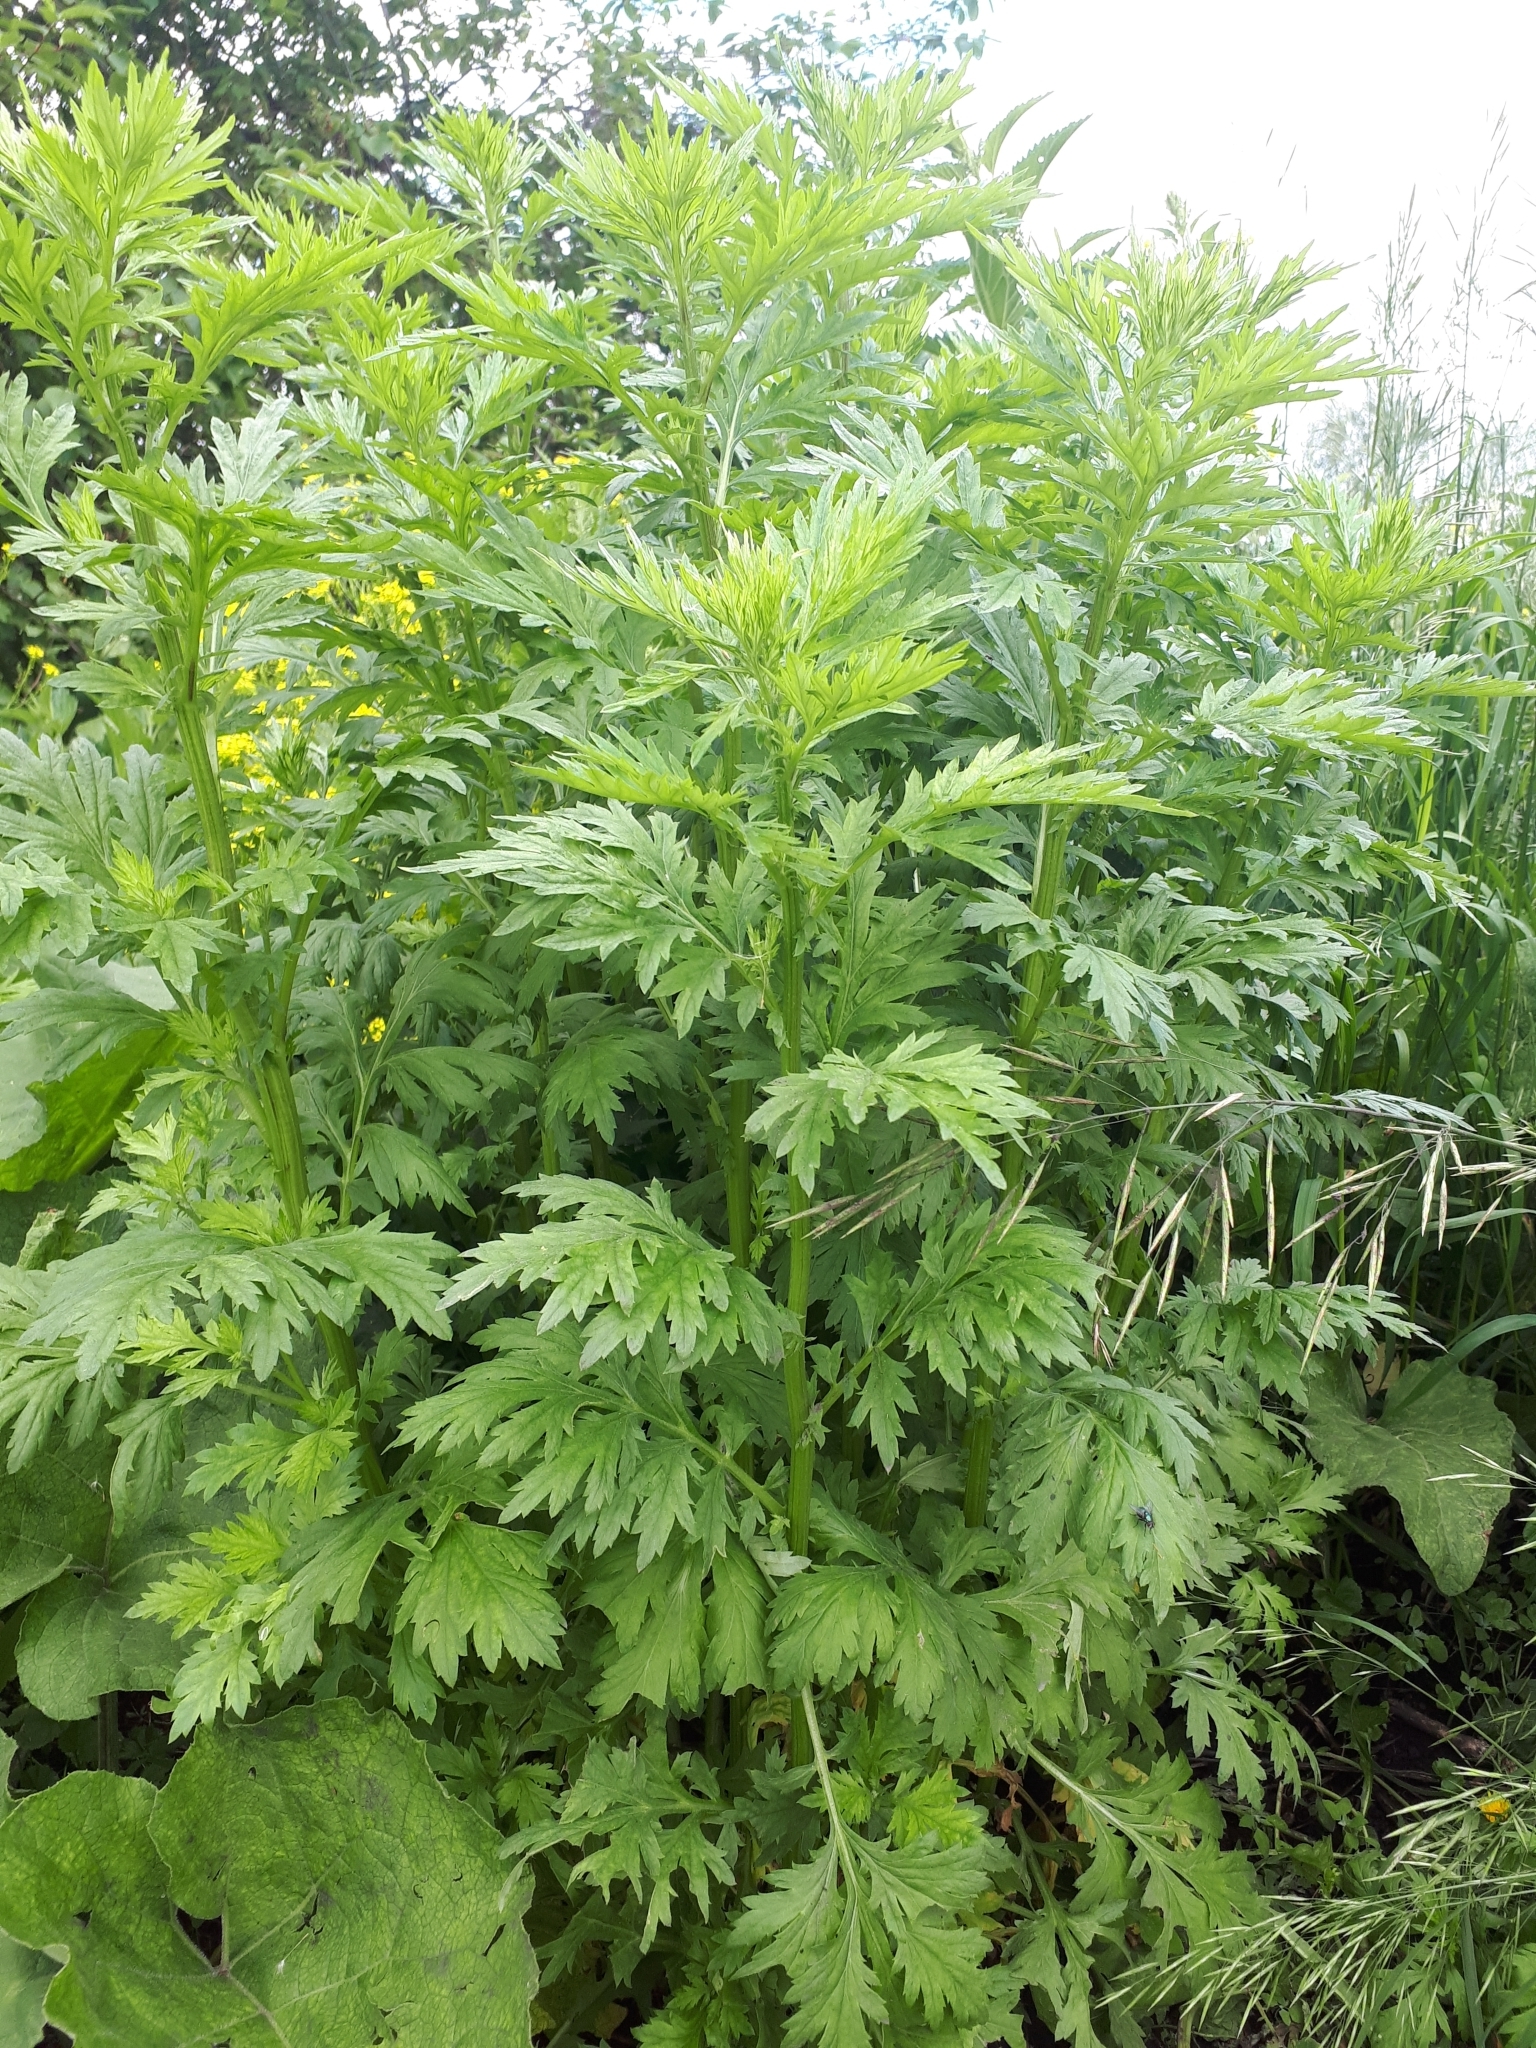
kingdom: Plantae
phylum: Tracheophyta
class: Magnoliopsida
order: Asterales
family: Asteraceae
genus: Artemisia
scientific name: Artemisia vulgaris
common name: Mugwort
